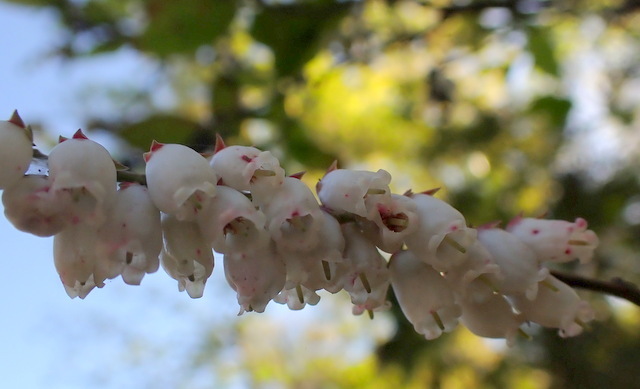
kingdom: Plantae
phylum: Tracheophyta
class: Magnoliopsida
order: Ericales
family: Ericaceae
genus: Eubotrys
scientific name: Eubotrys racemosa
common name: Fetterbush
